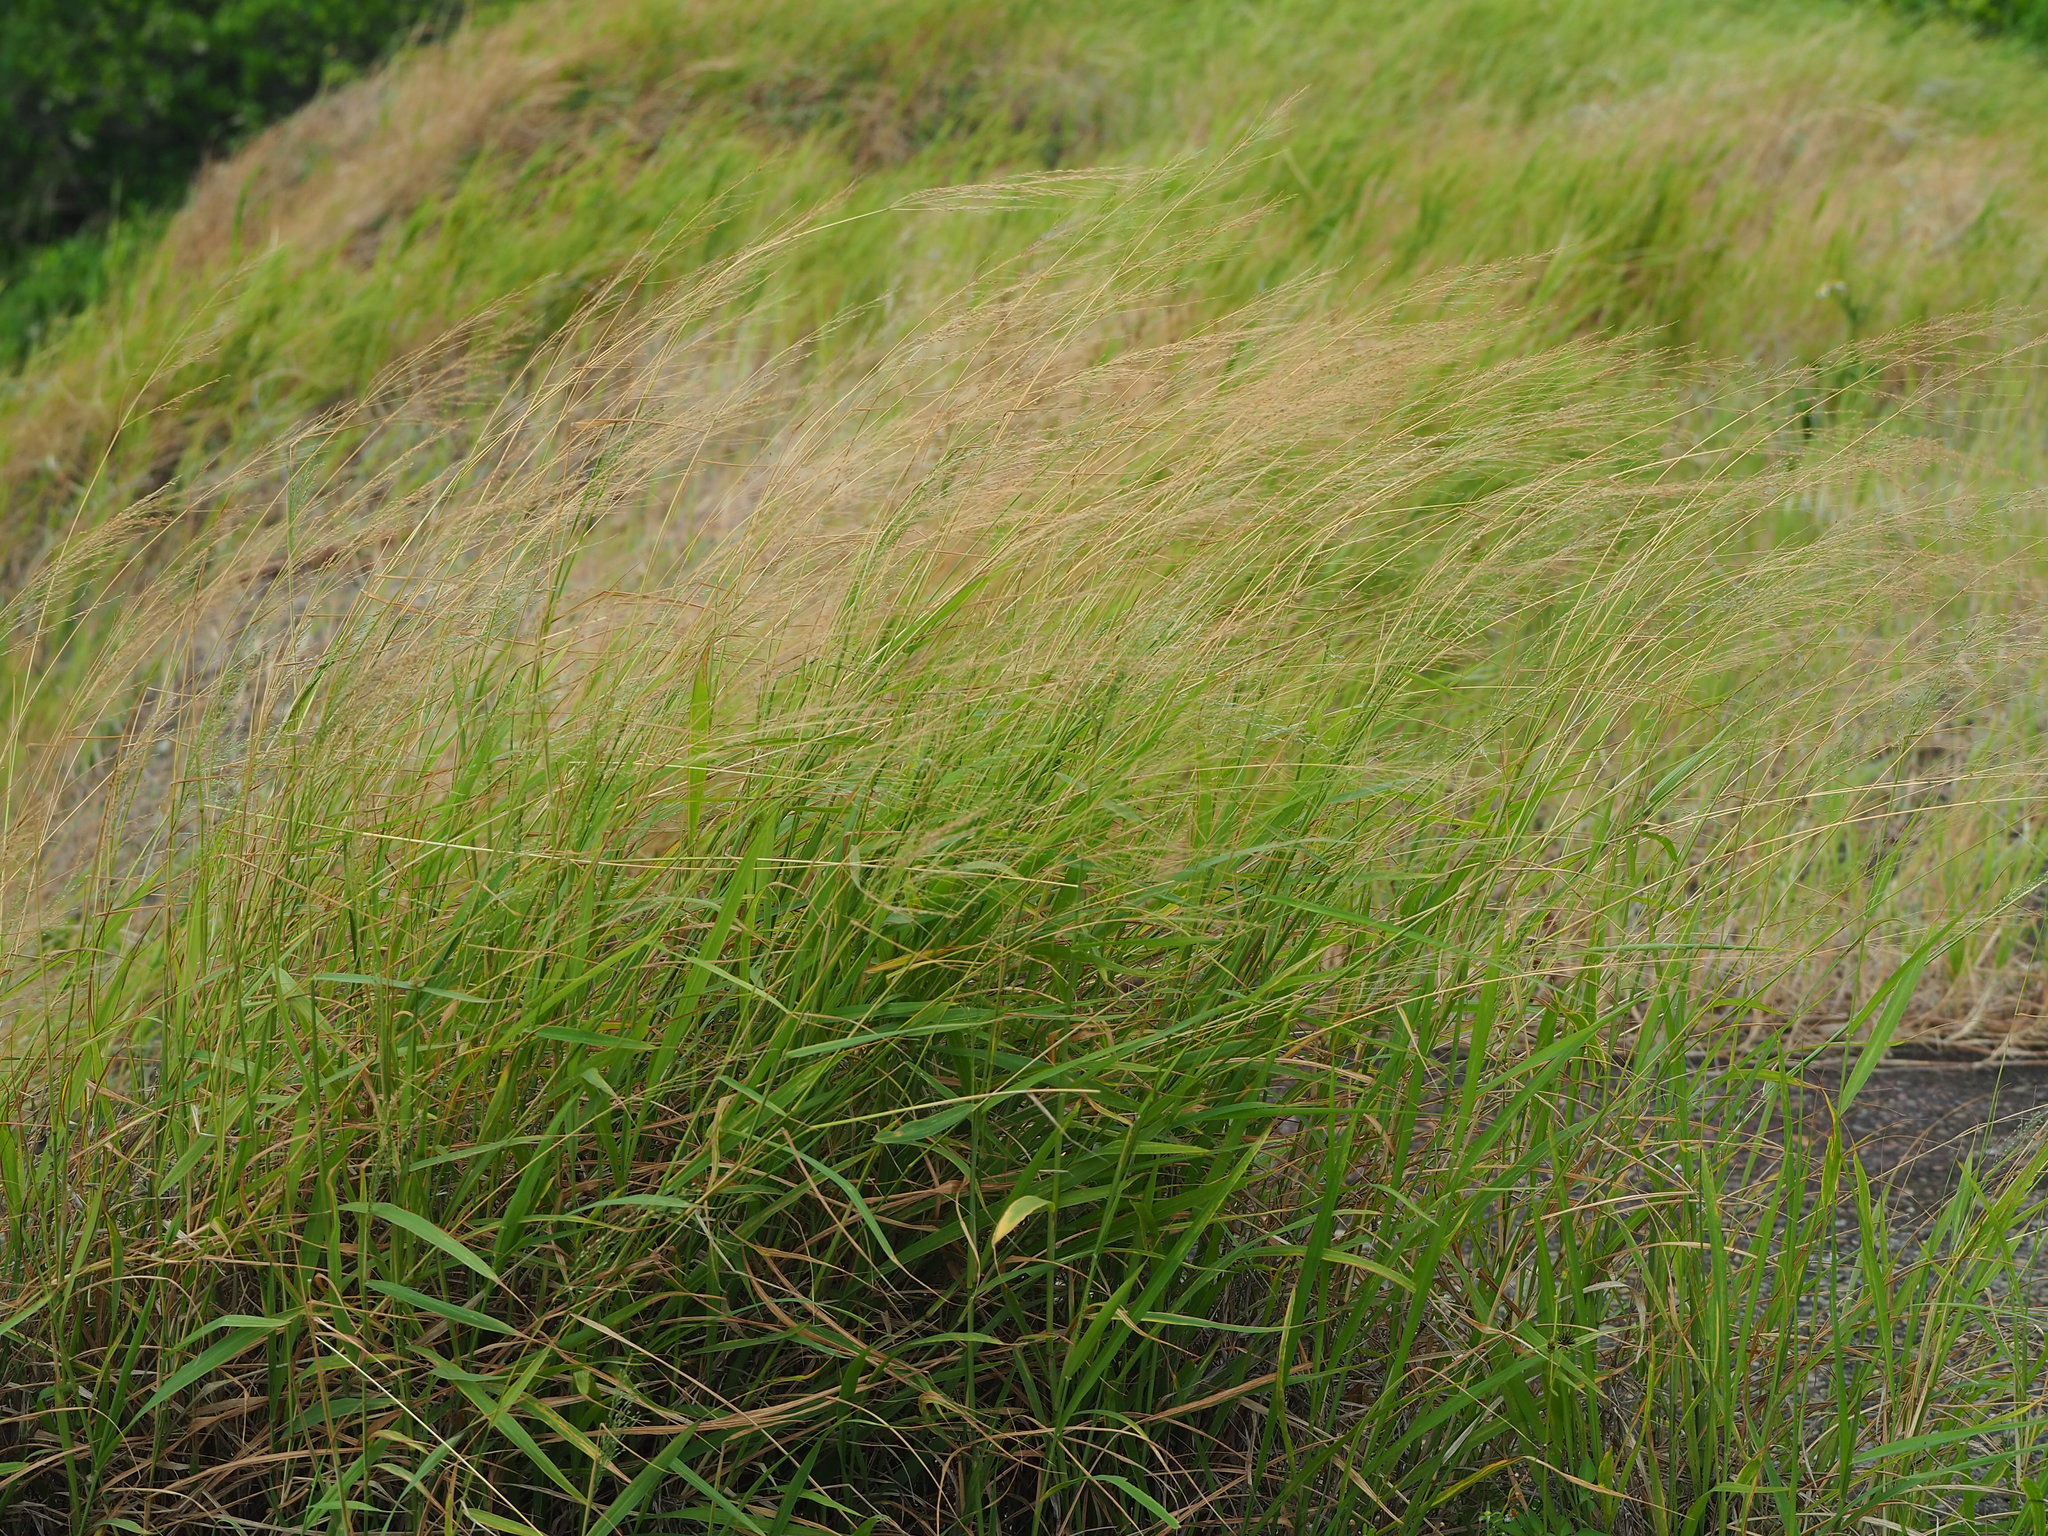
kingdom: Plantae
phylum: Tracheophyta
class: Liliopsida
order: Poales
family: Poaceae
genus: Megathyrsus
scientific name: Megathyrsus maximus
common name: Guineagrass
